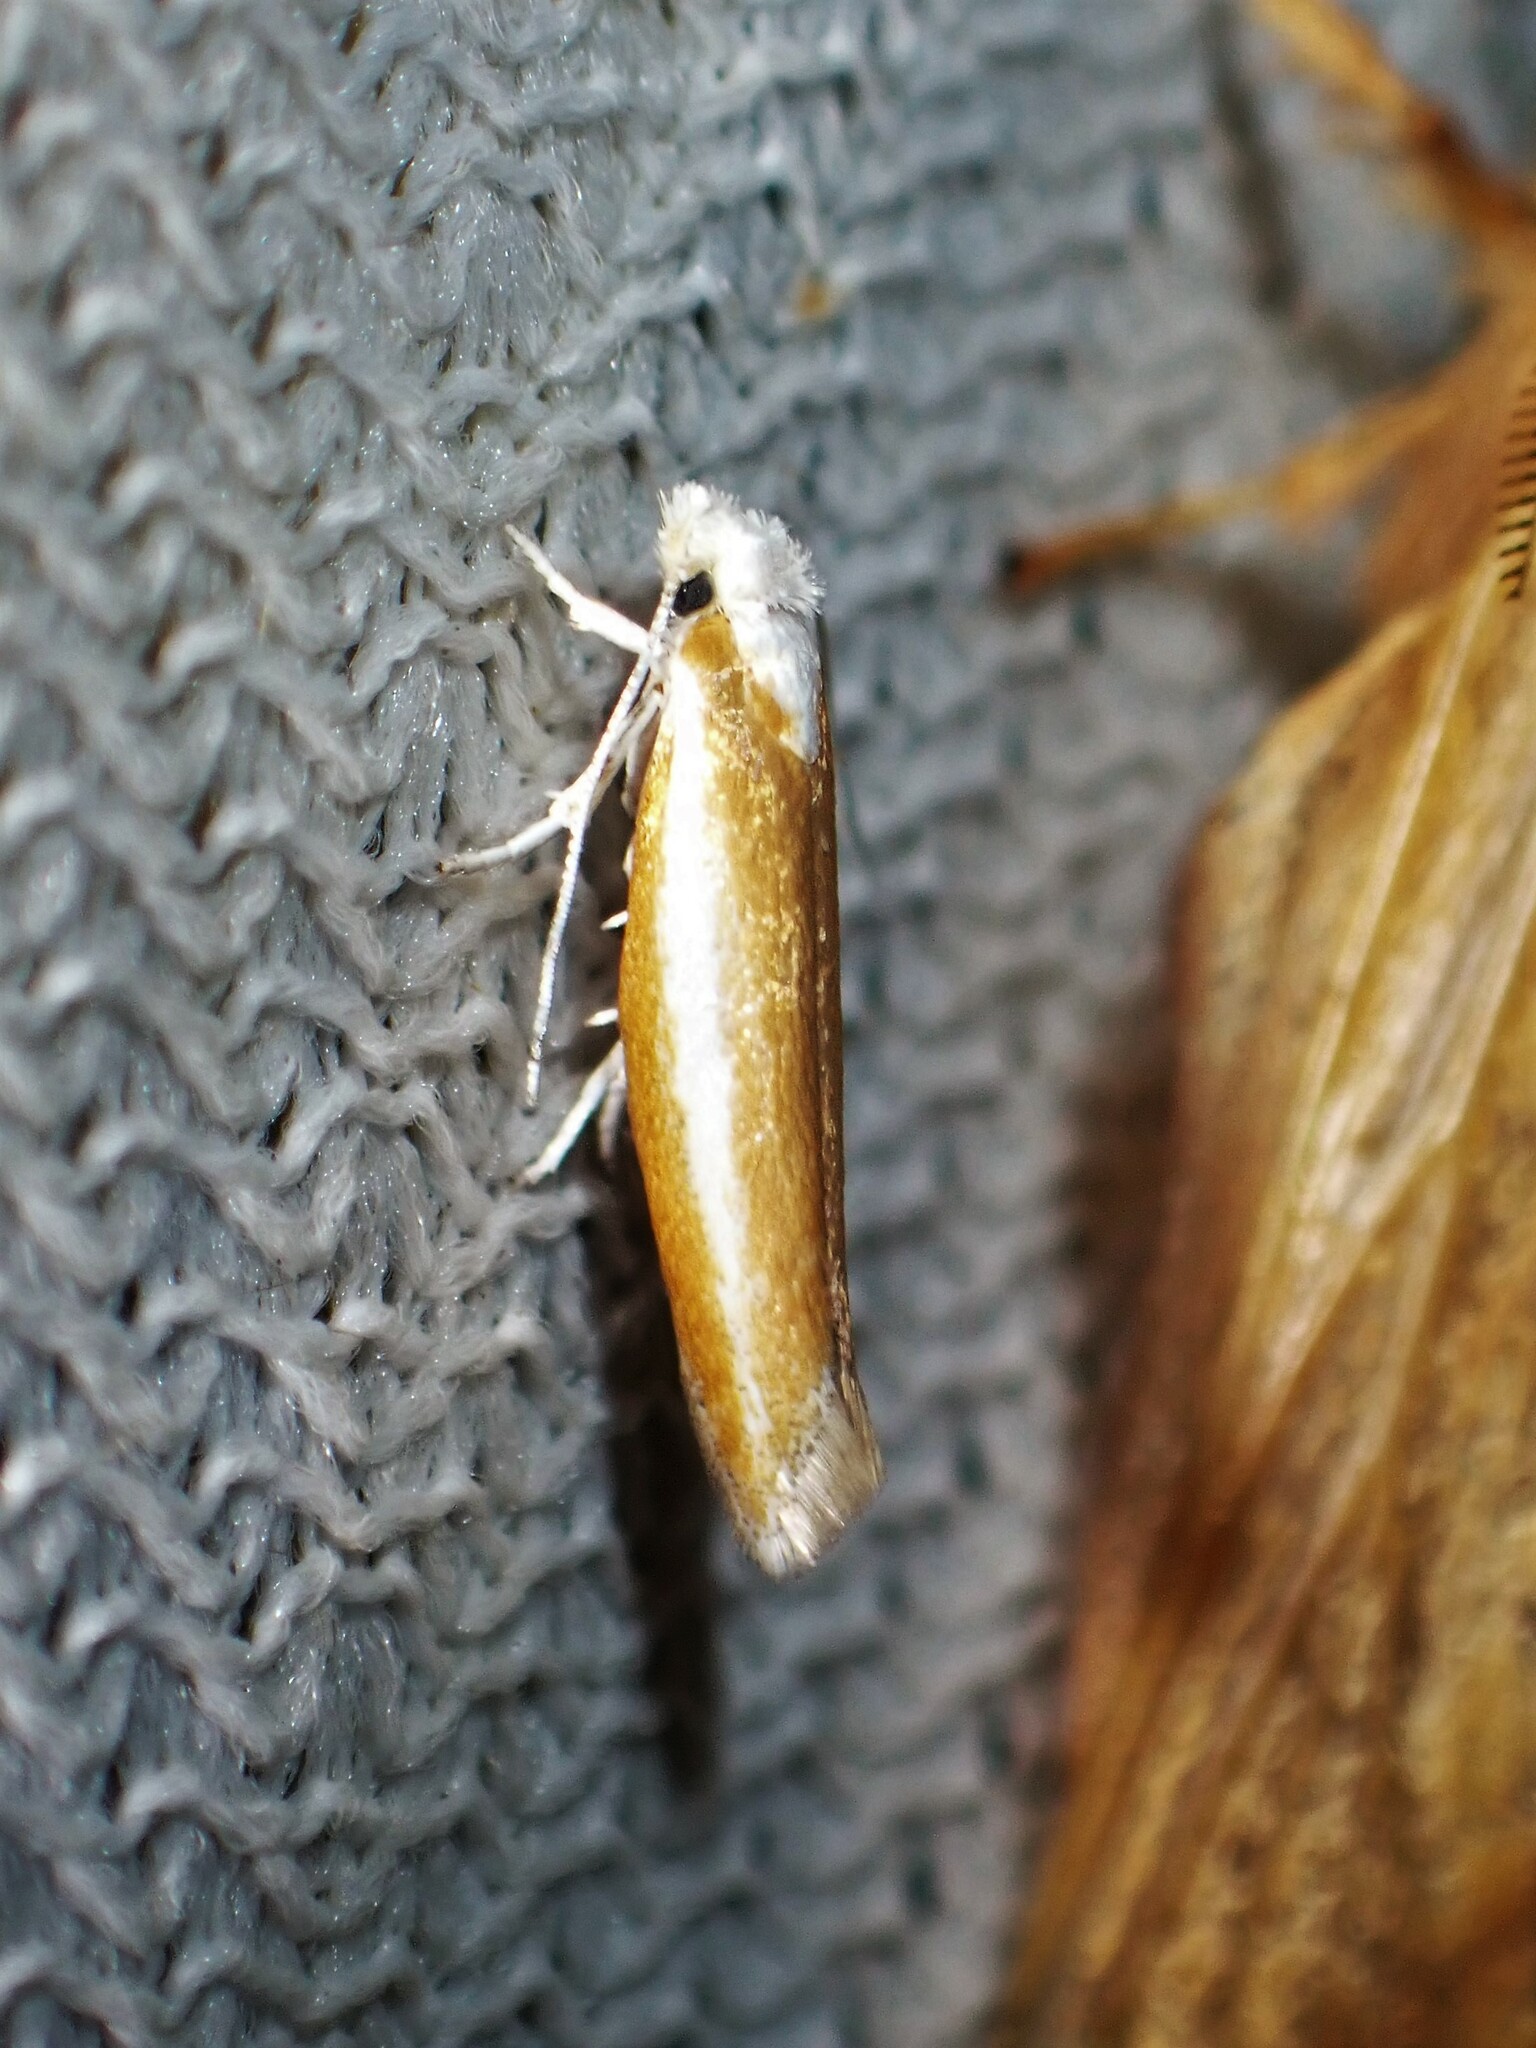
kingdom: Animalia
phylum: Arthropoda
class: Insecta
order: Lepidoptera
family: Yponomeutidae
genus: Zelleria
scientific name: Zelleria haimbachi
